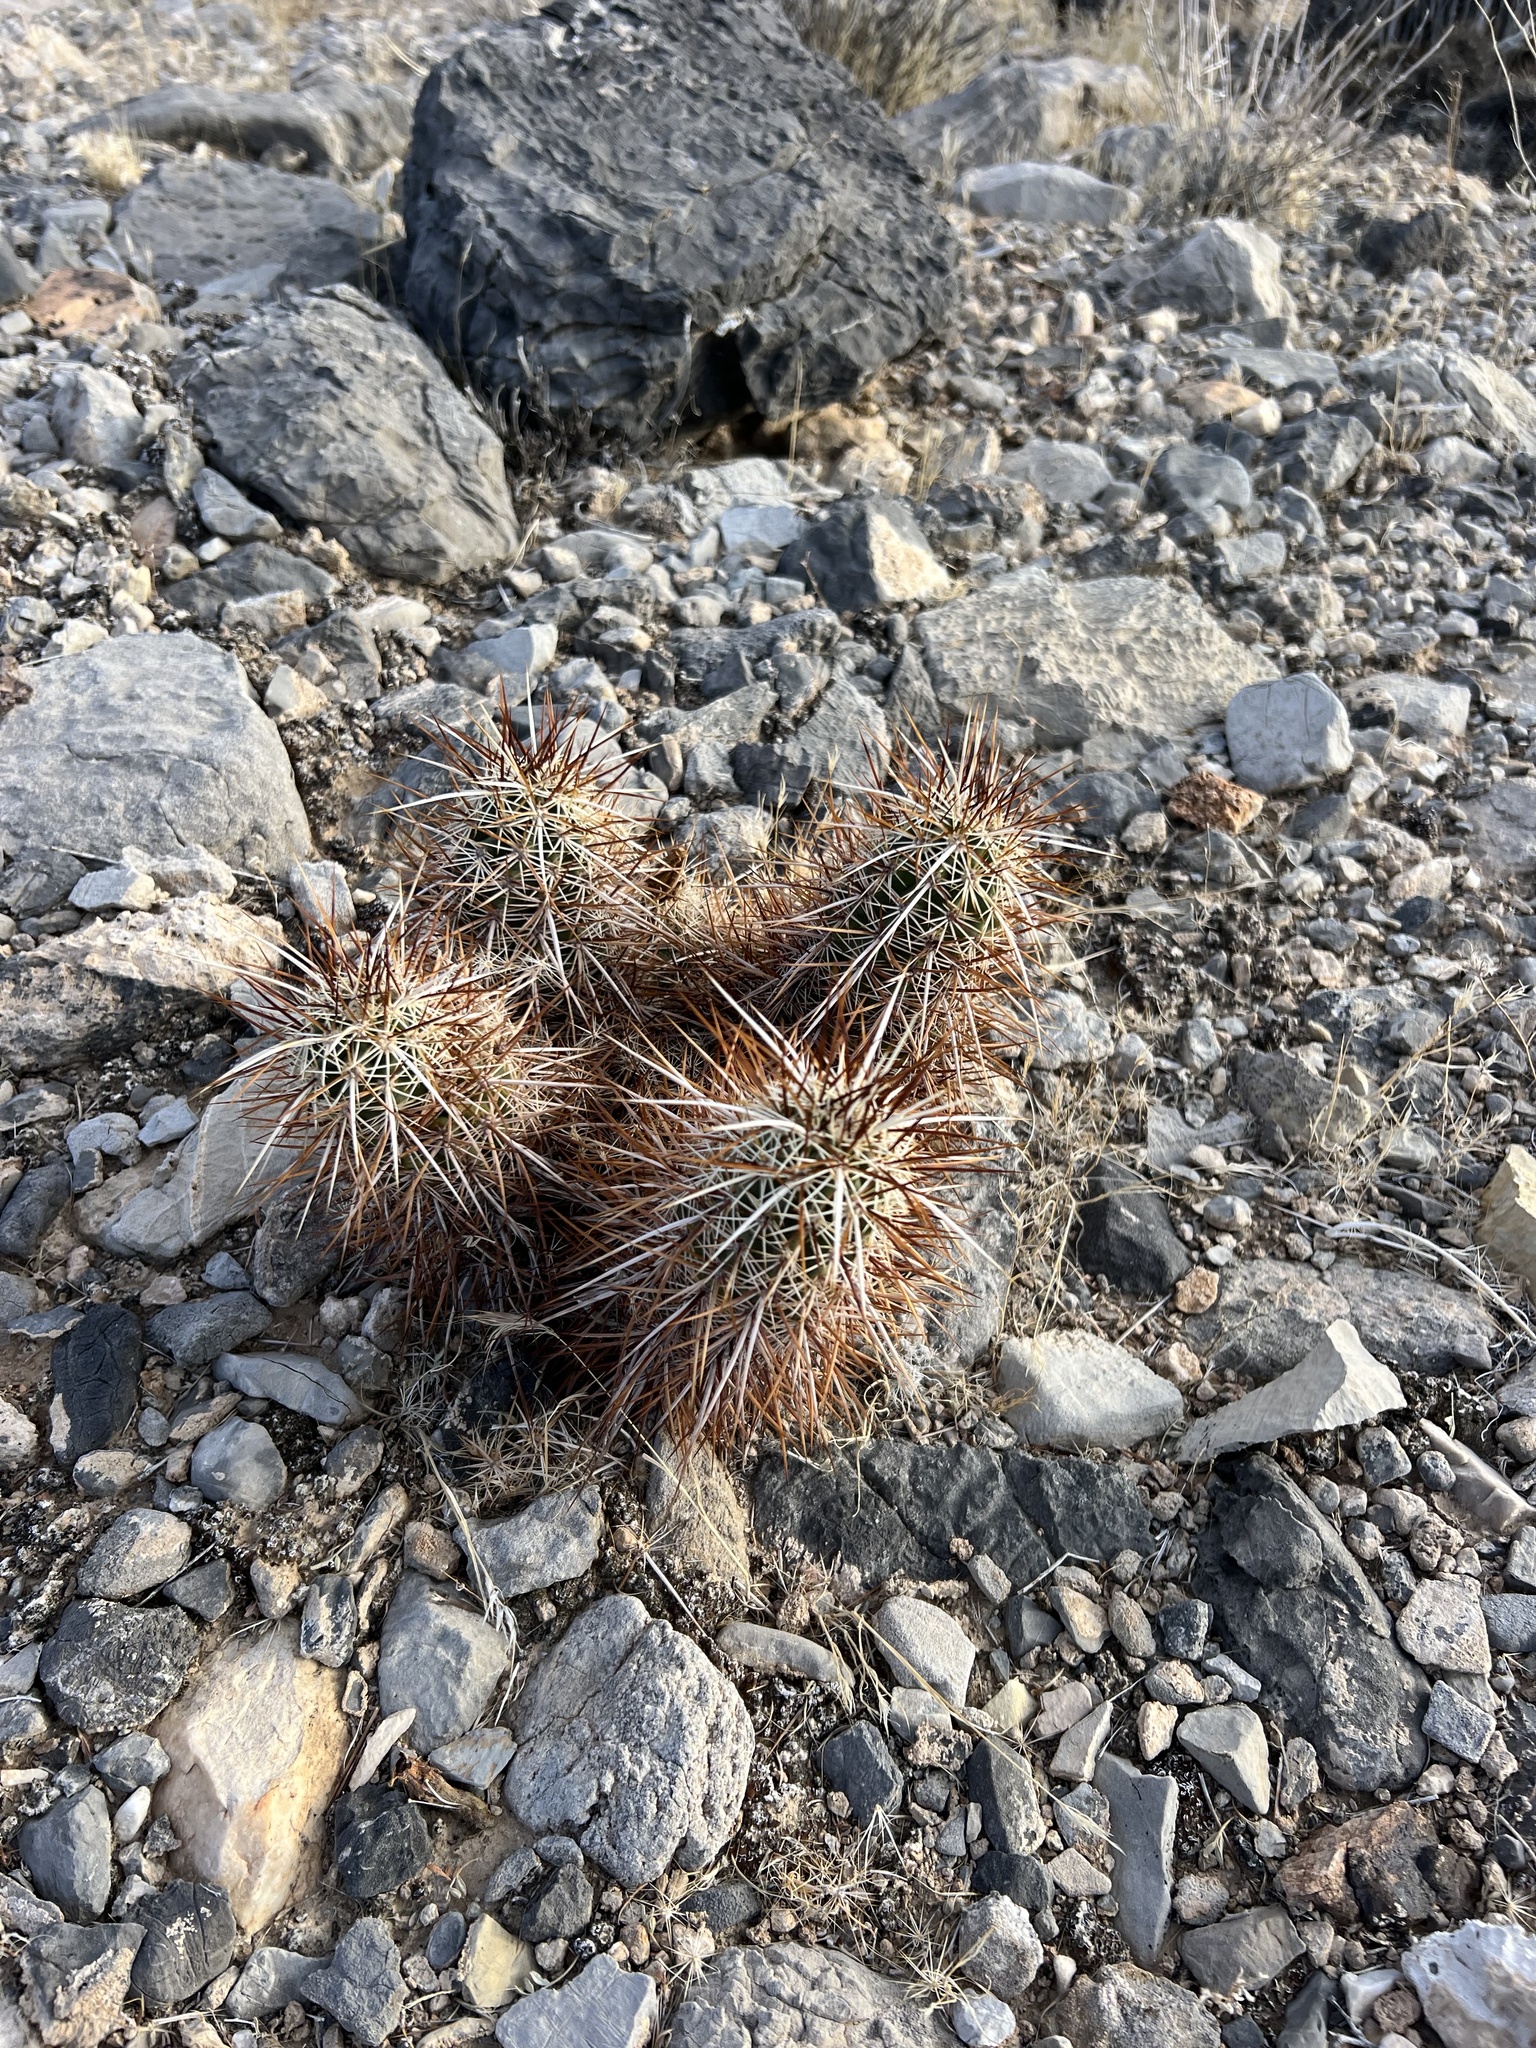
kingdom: Plantae
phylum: Tracheophyta
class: Magnoliopsida
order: Caryophyllales
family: Cactaceae
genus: Echinocereus
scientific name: Echinocereus engelmannii
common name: Engelmann's hedgehog cactus
